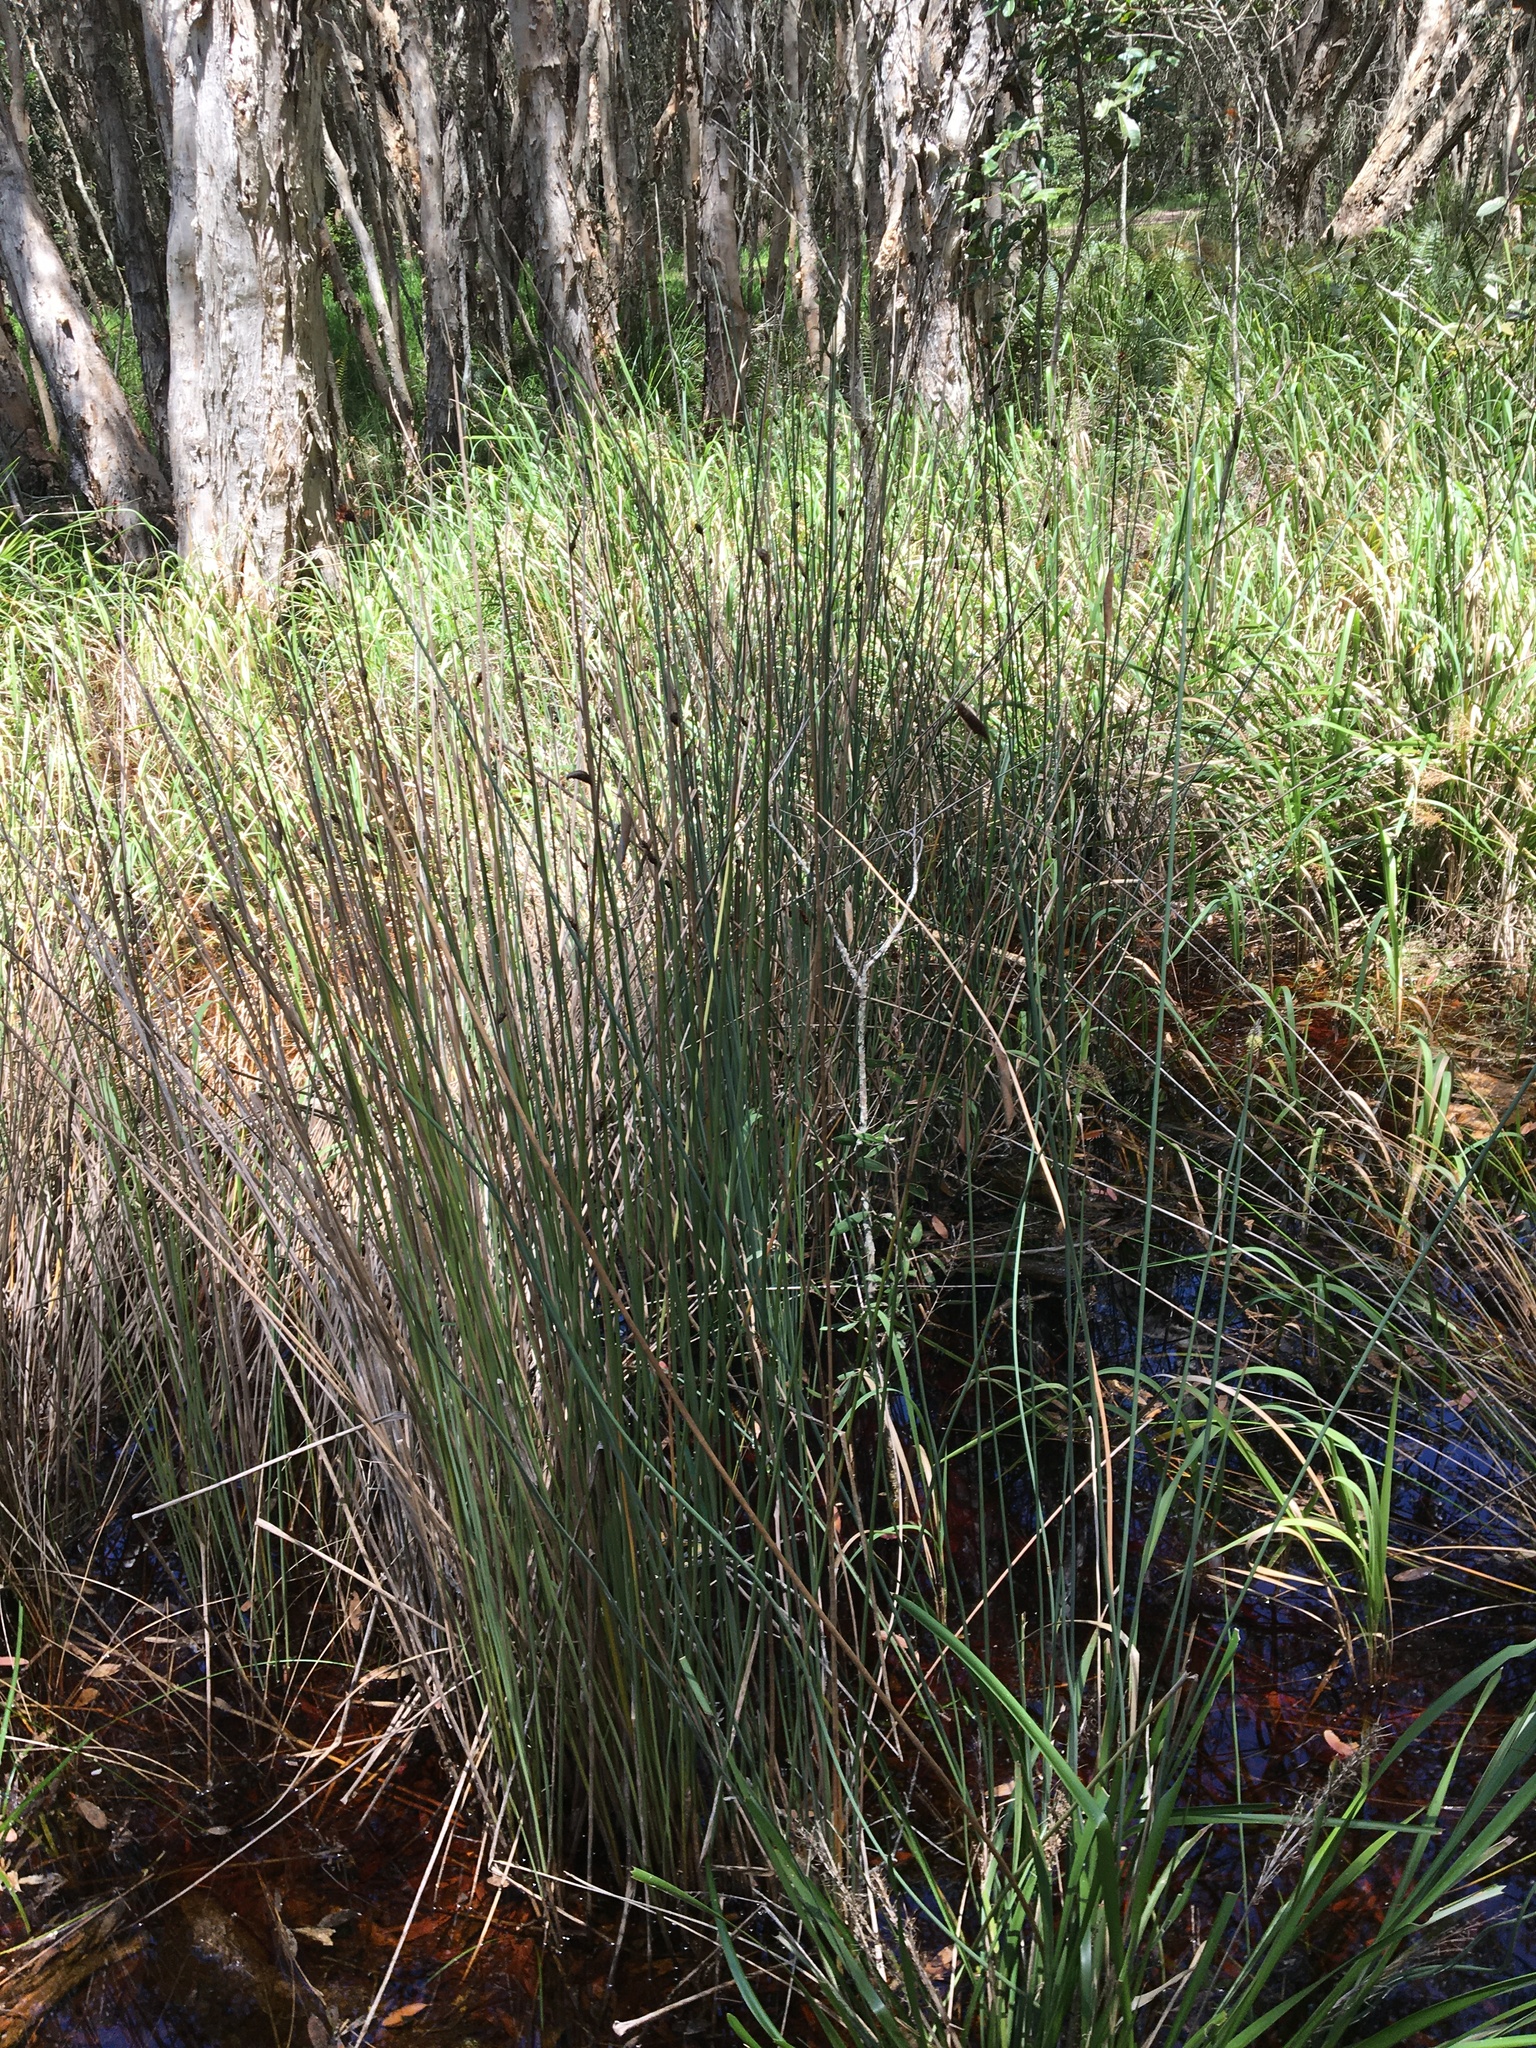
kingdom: Plantae
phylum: Tracheophyta
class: Liliopsida
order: Poales
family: Cyperaceae
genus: Lepironia
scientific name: Lepironia articulata
